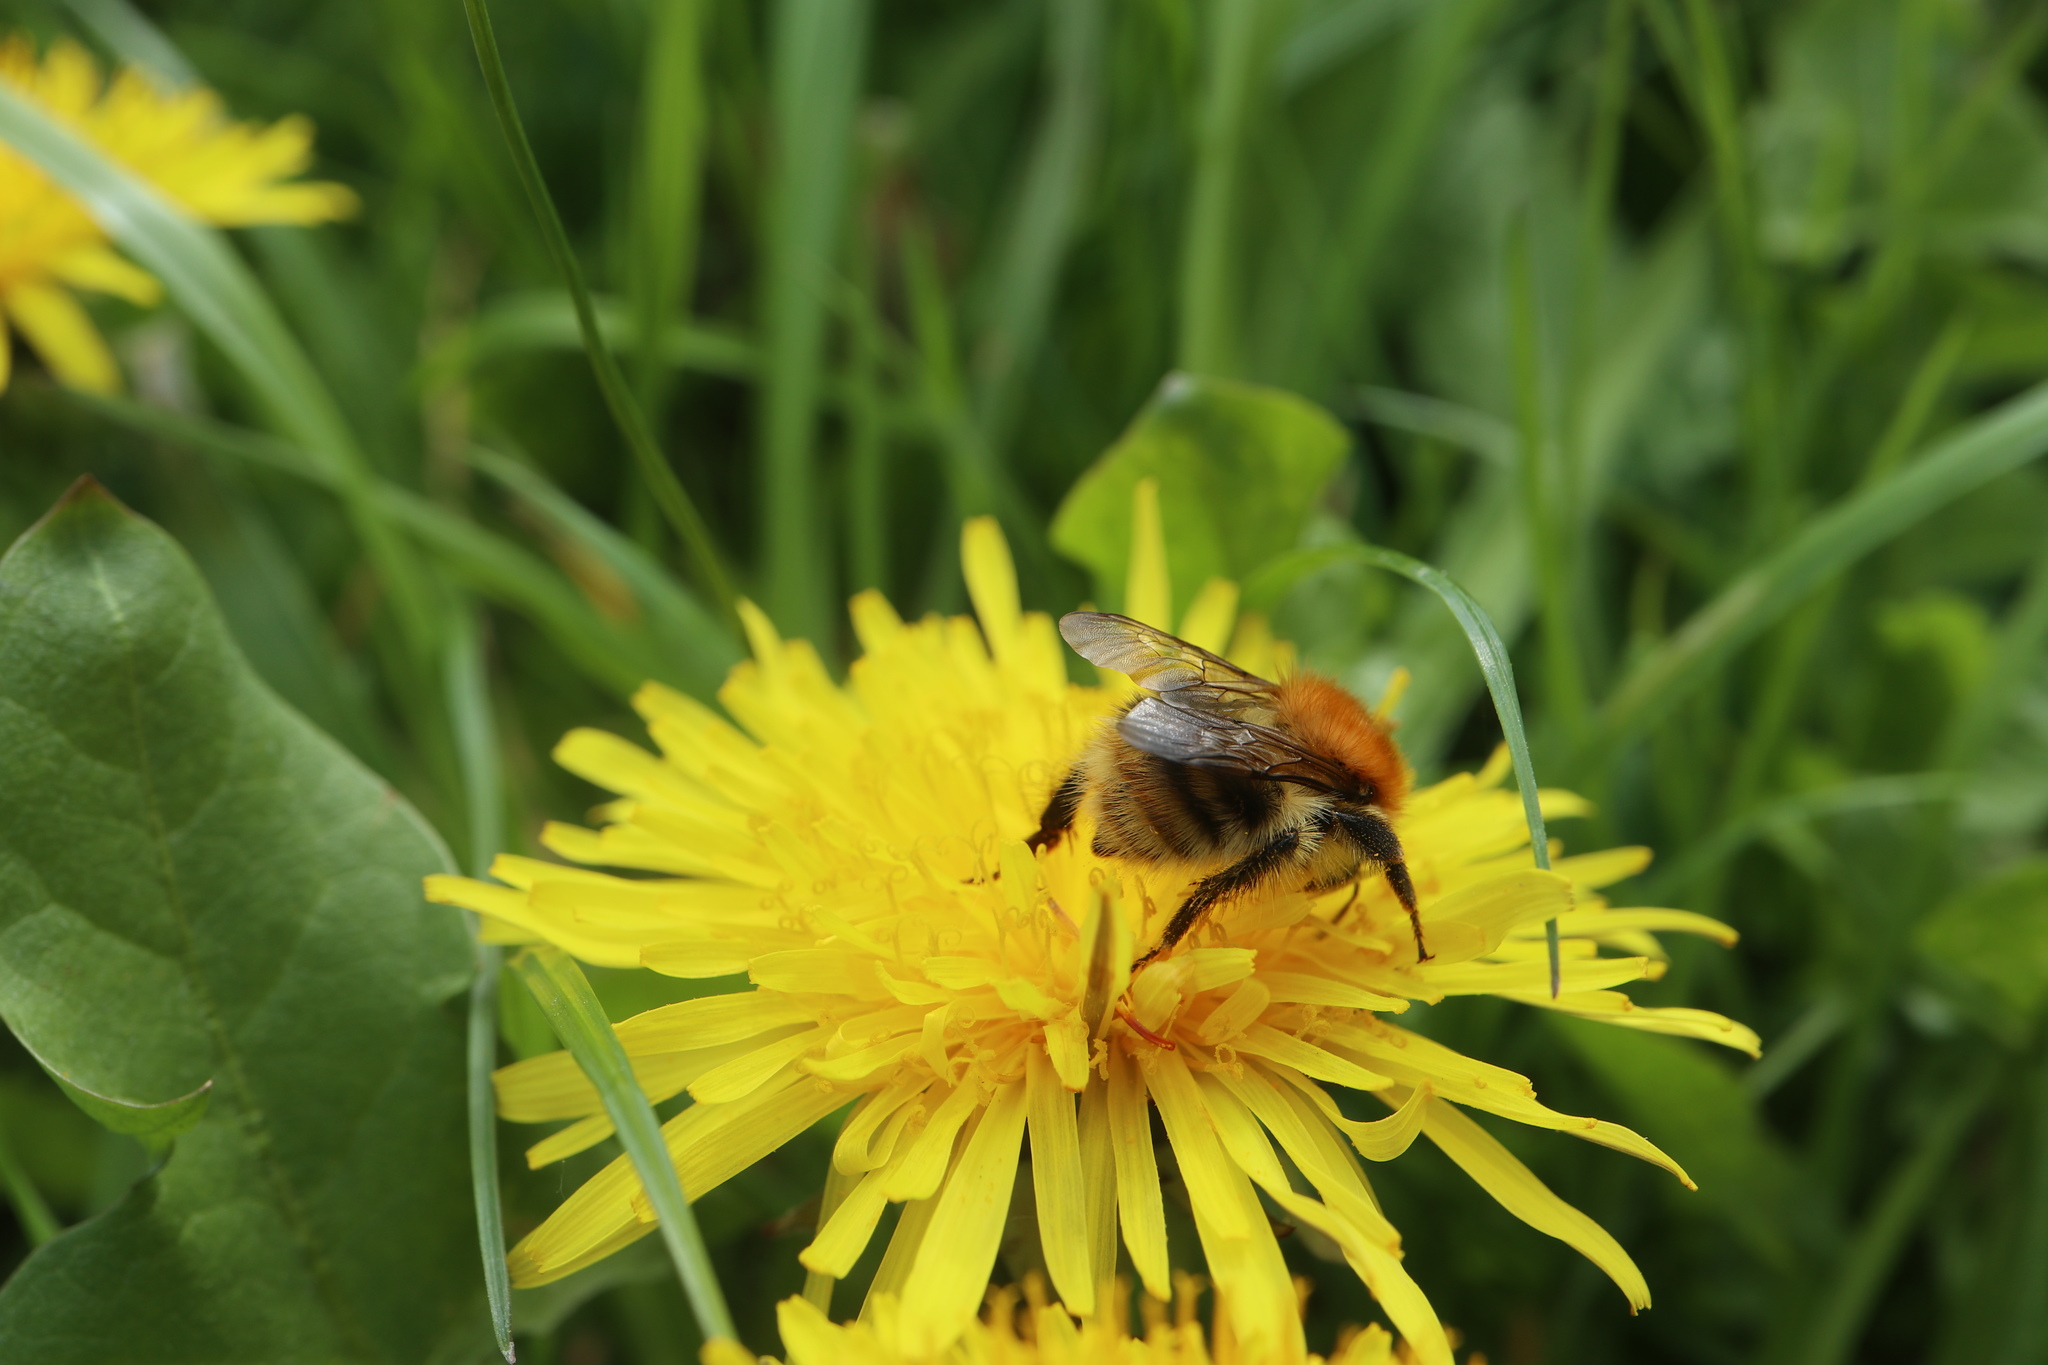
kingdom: Animalia
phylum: Arthropoda
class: Insecta
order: Hymenoptera
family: Apidae
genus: Bombus
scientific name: Bombus pascuorum
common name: Common carder bee
